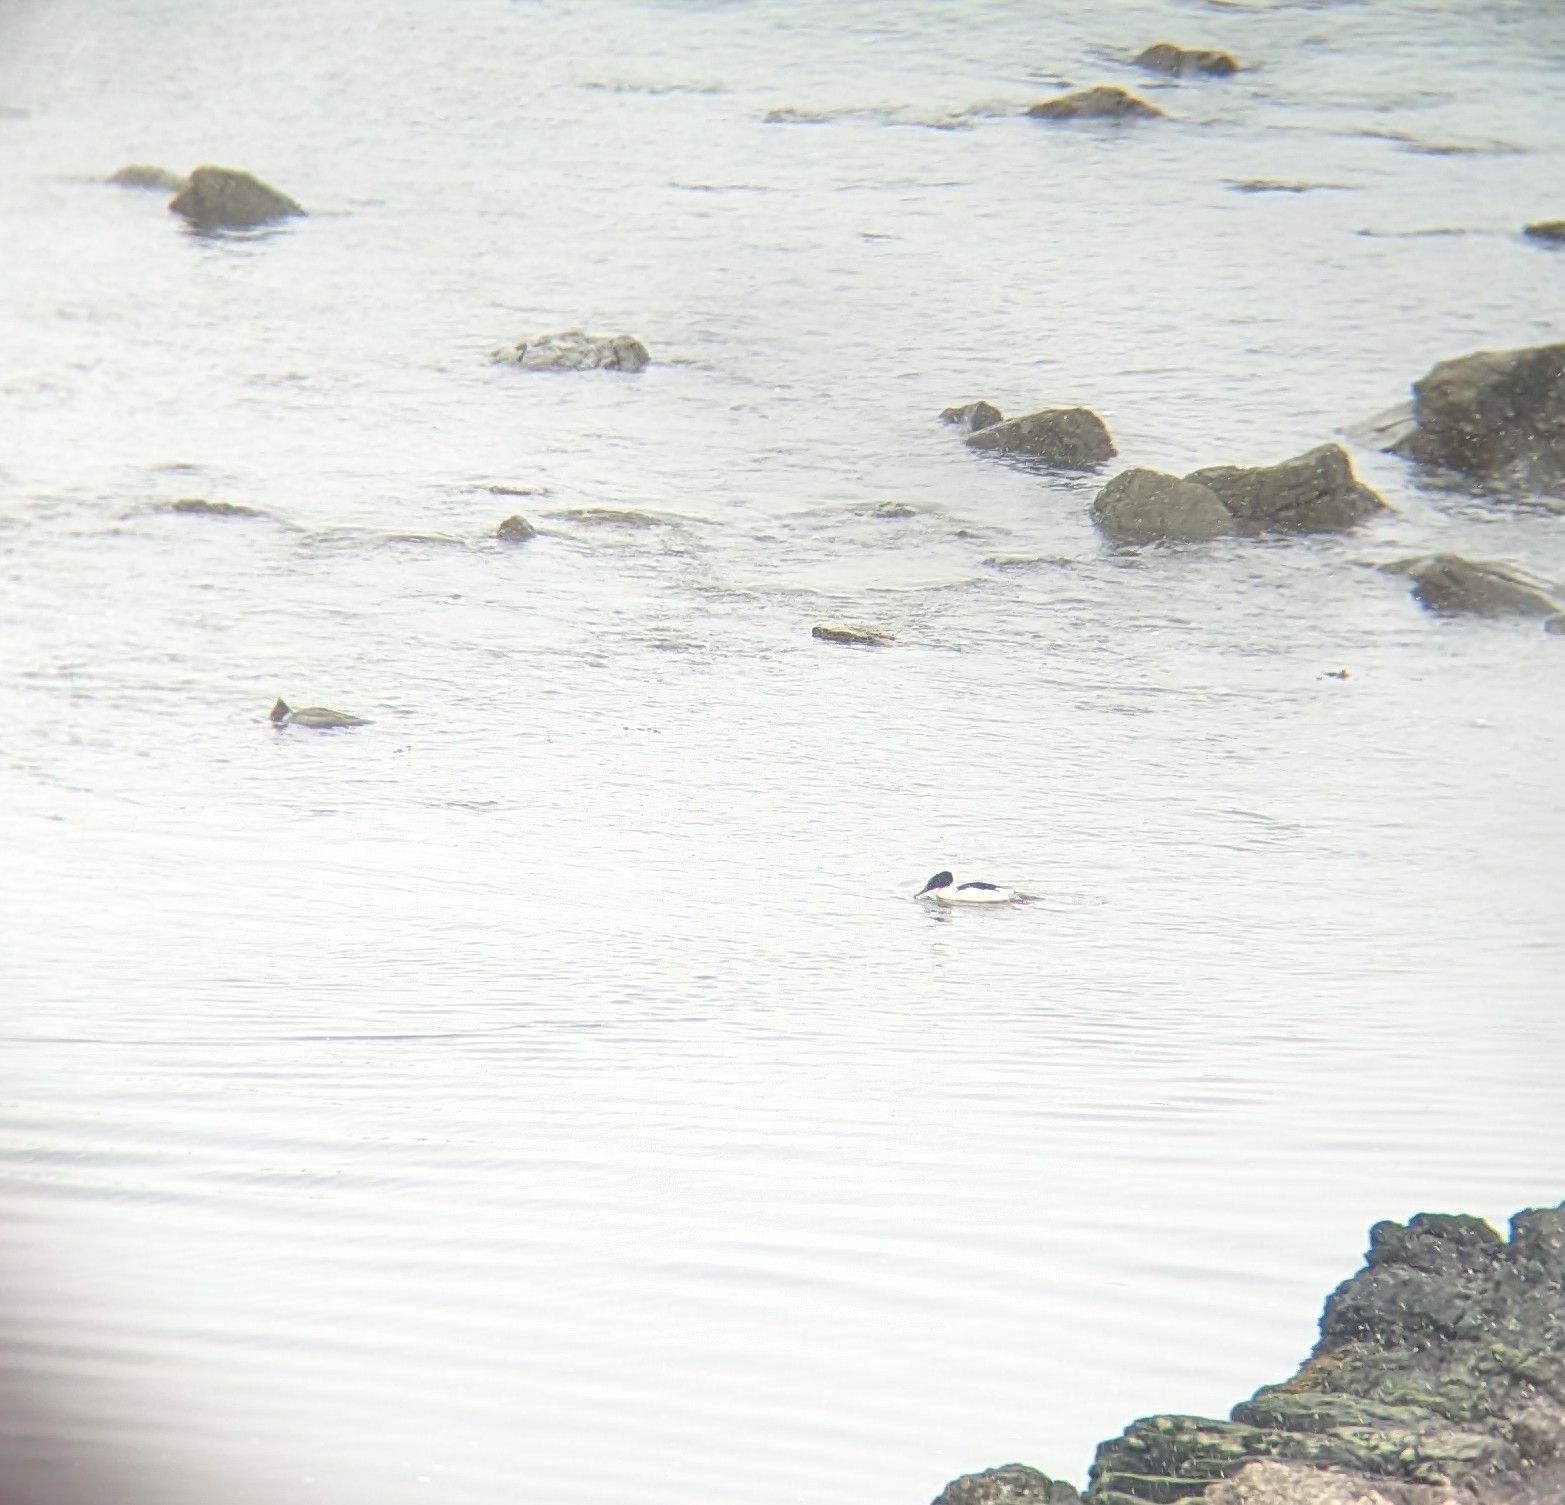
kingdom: Animalia
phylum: Chordata
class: Aves
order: Anseriformes
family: Anatidae
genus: Mergus
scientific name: Mergus merganser
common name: Common merganser
